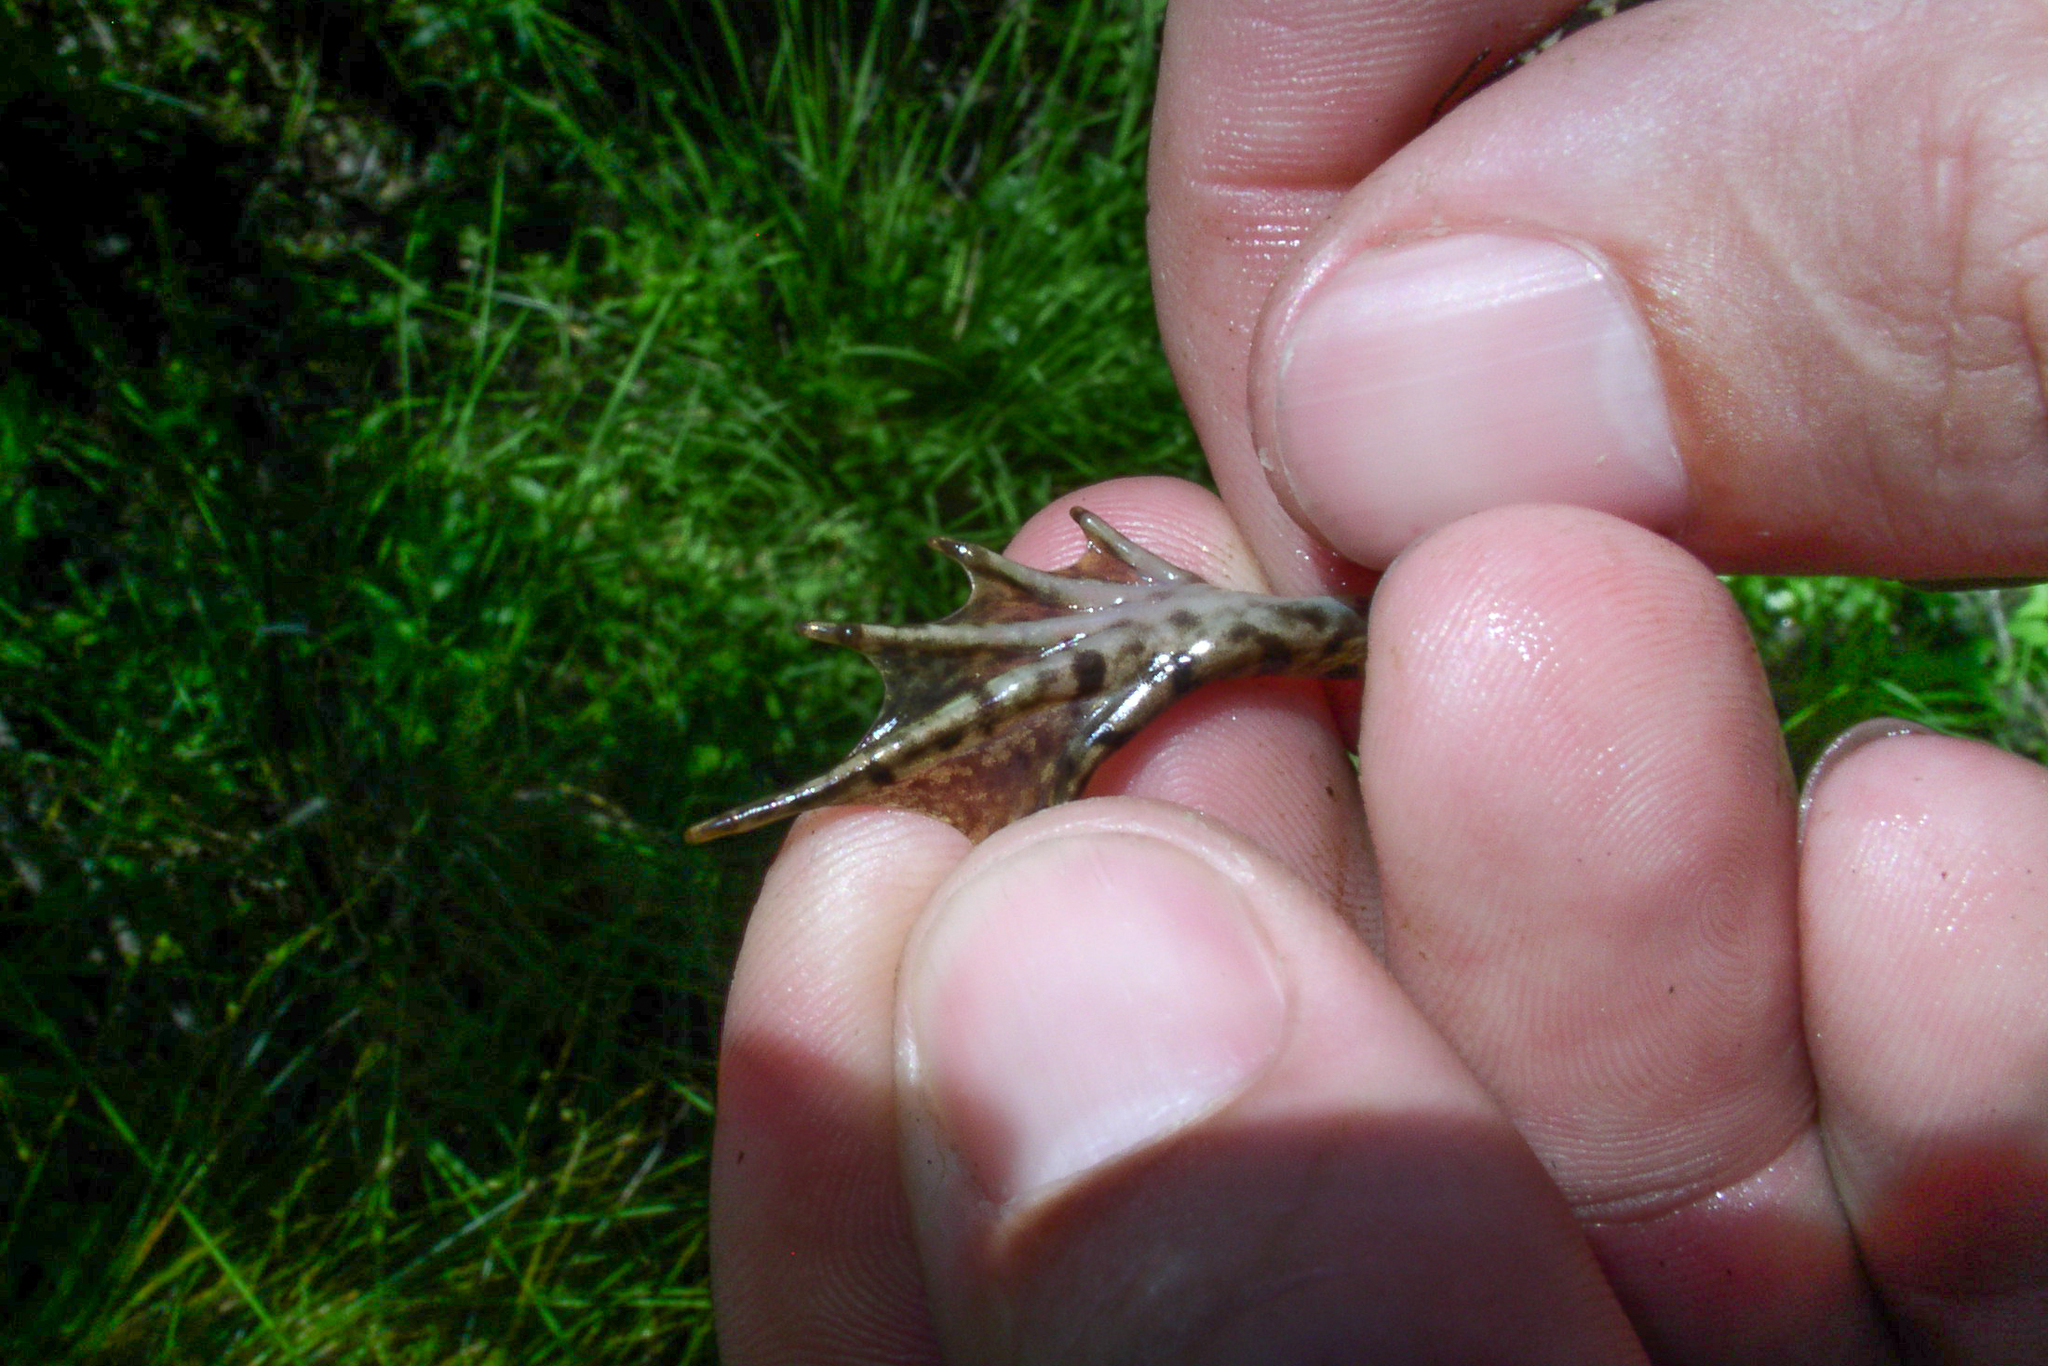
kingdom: Animalia
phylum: Chordata
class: Amphibia
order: Anura
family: Ranidae
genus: Lithobates
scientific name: Lithobates clamitans
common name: Green frog
